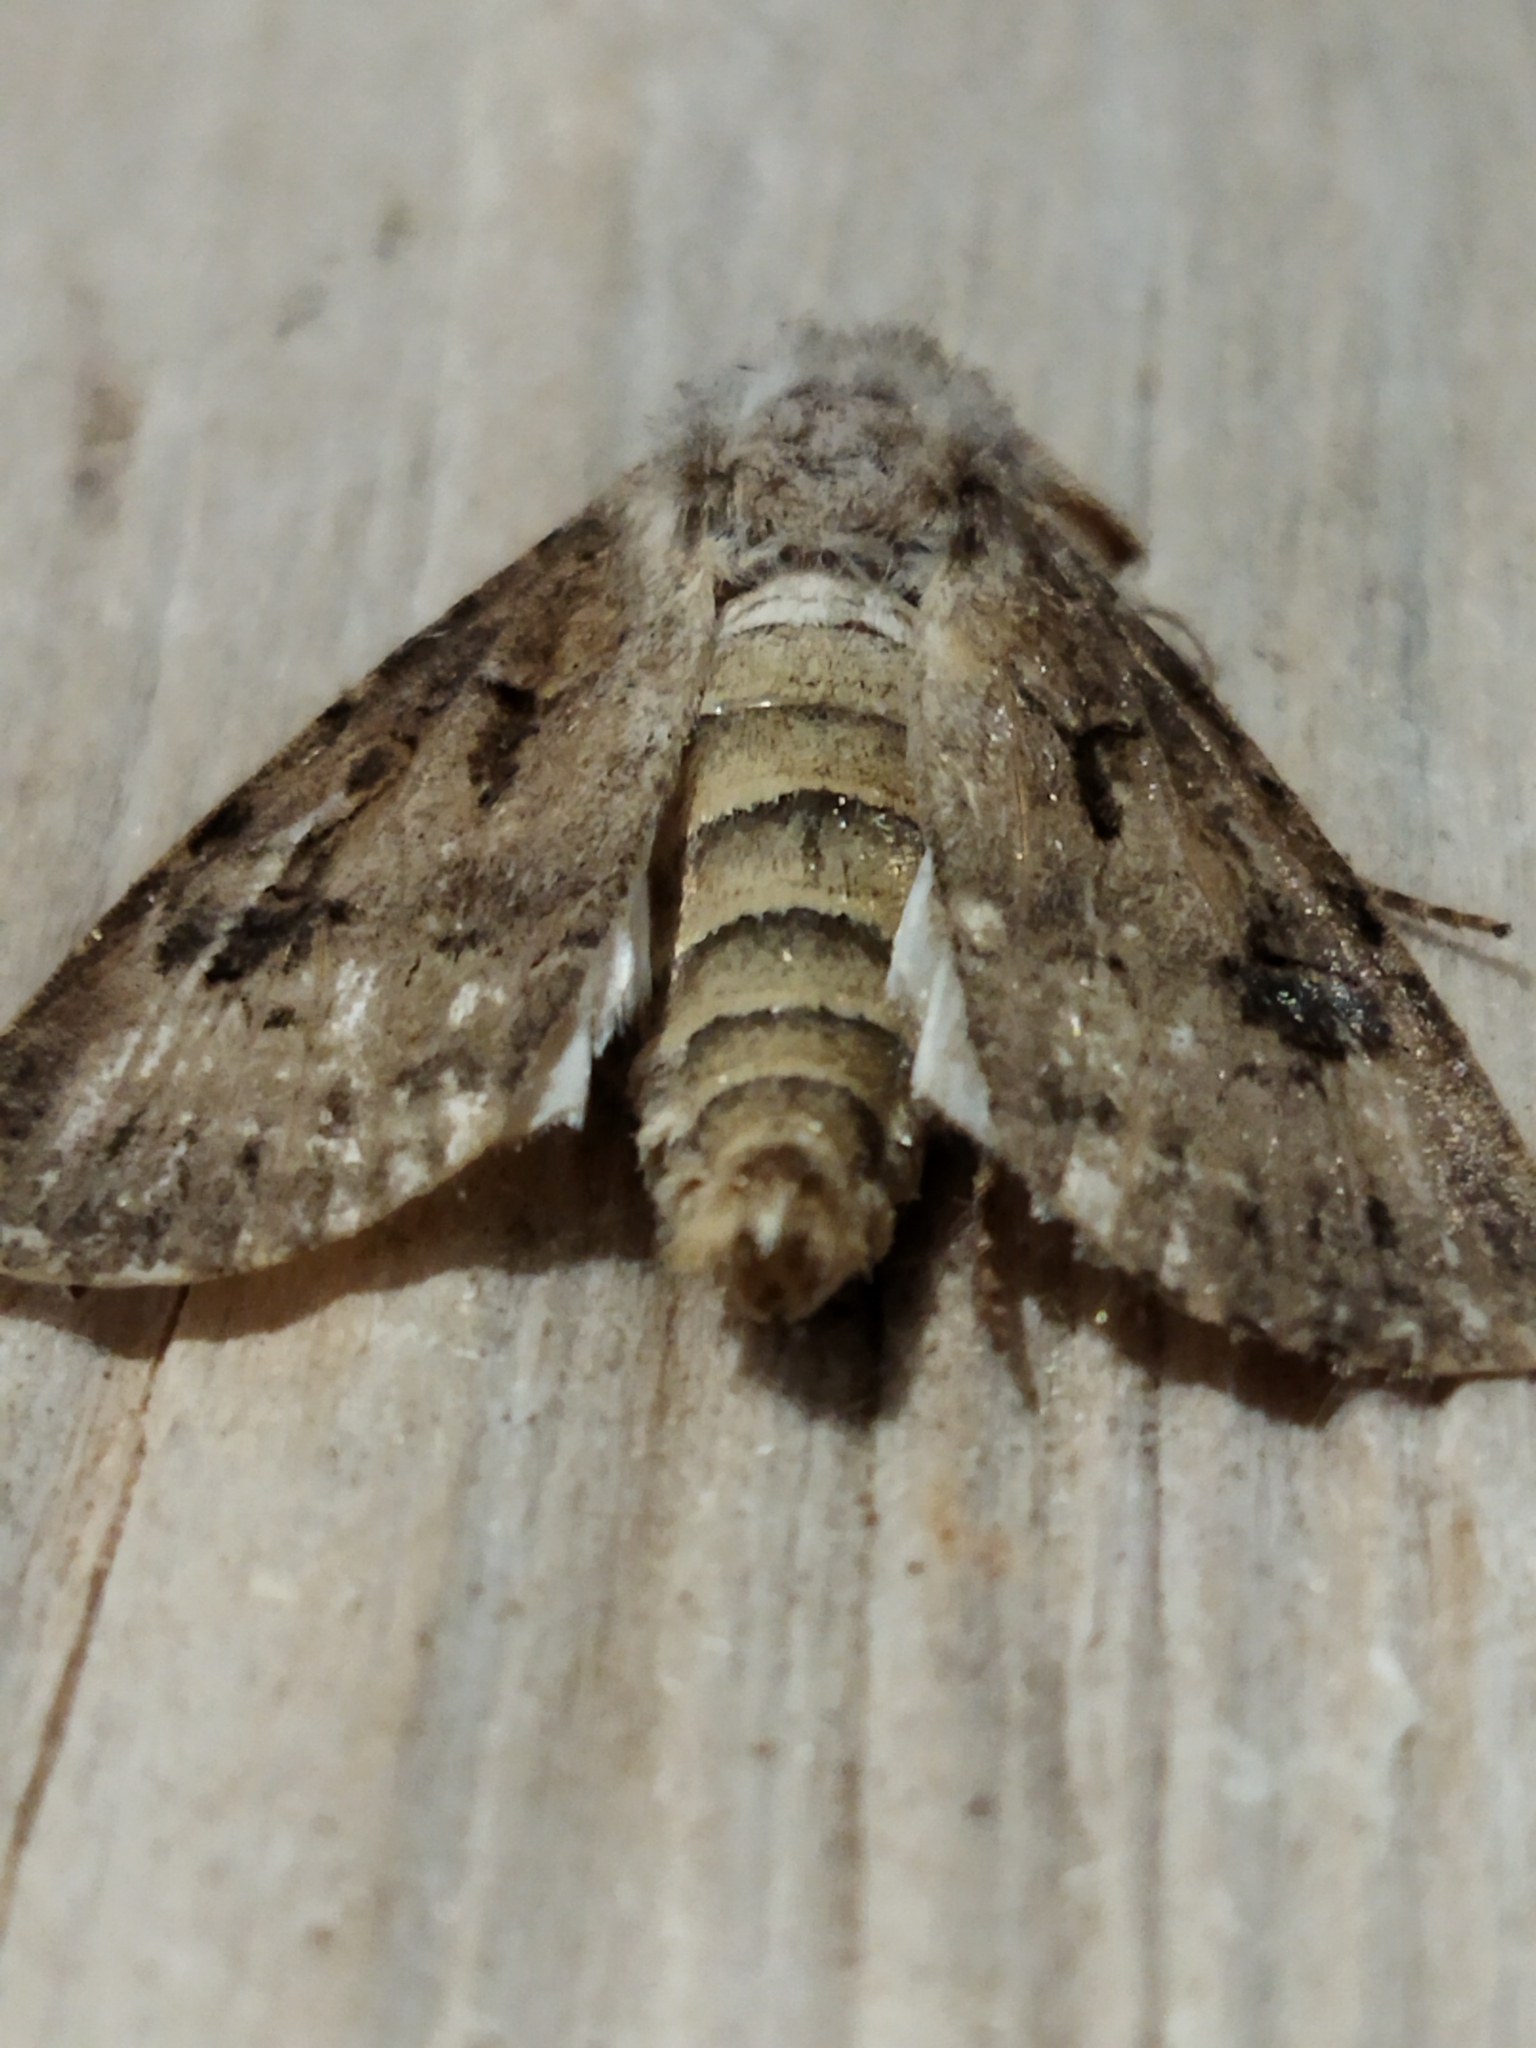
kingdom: Animalia
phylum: Arthropoda
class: Insecta
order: Lepidoptera
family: Noctuidae
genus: Agrotis
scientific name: Agrotis bigramma
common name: Great dart
